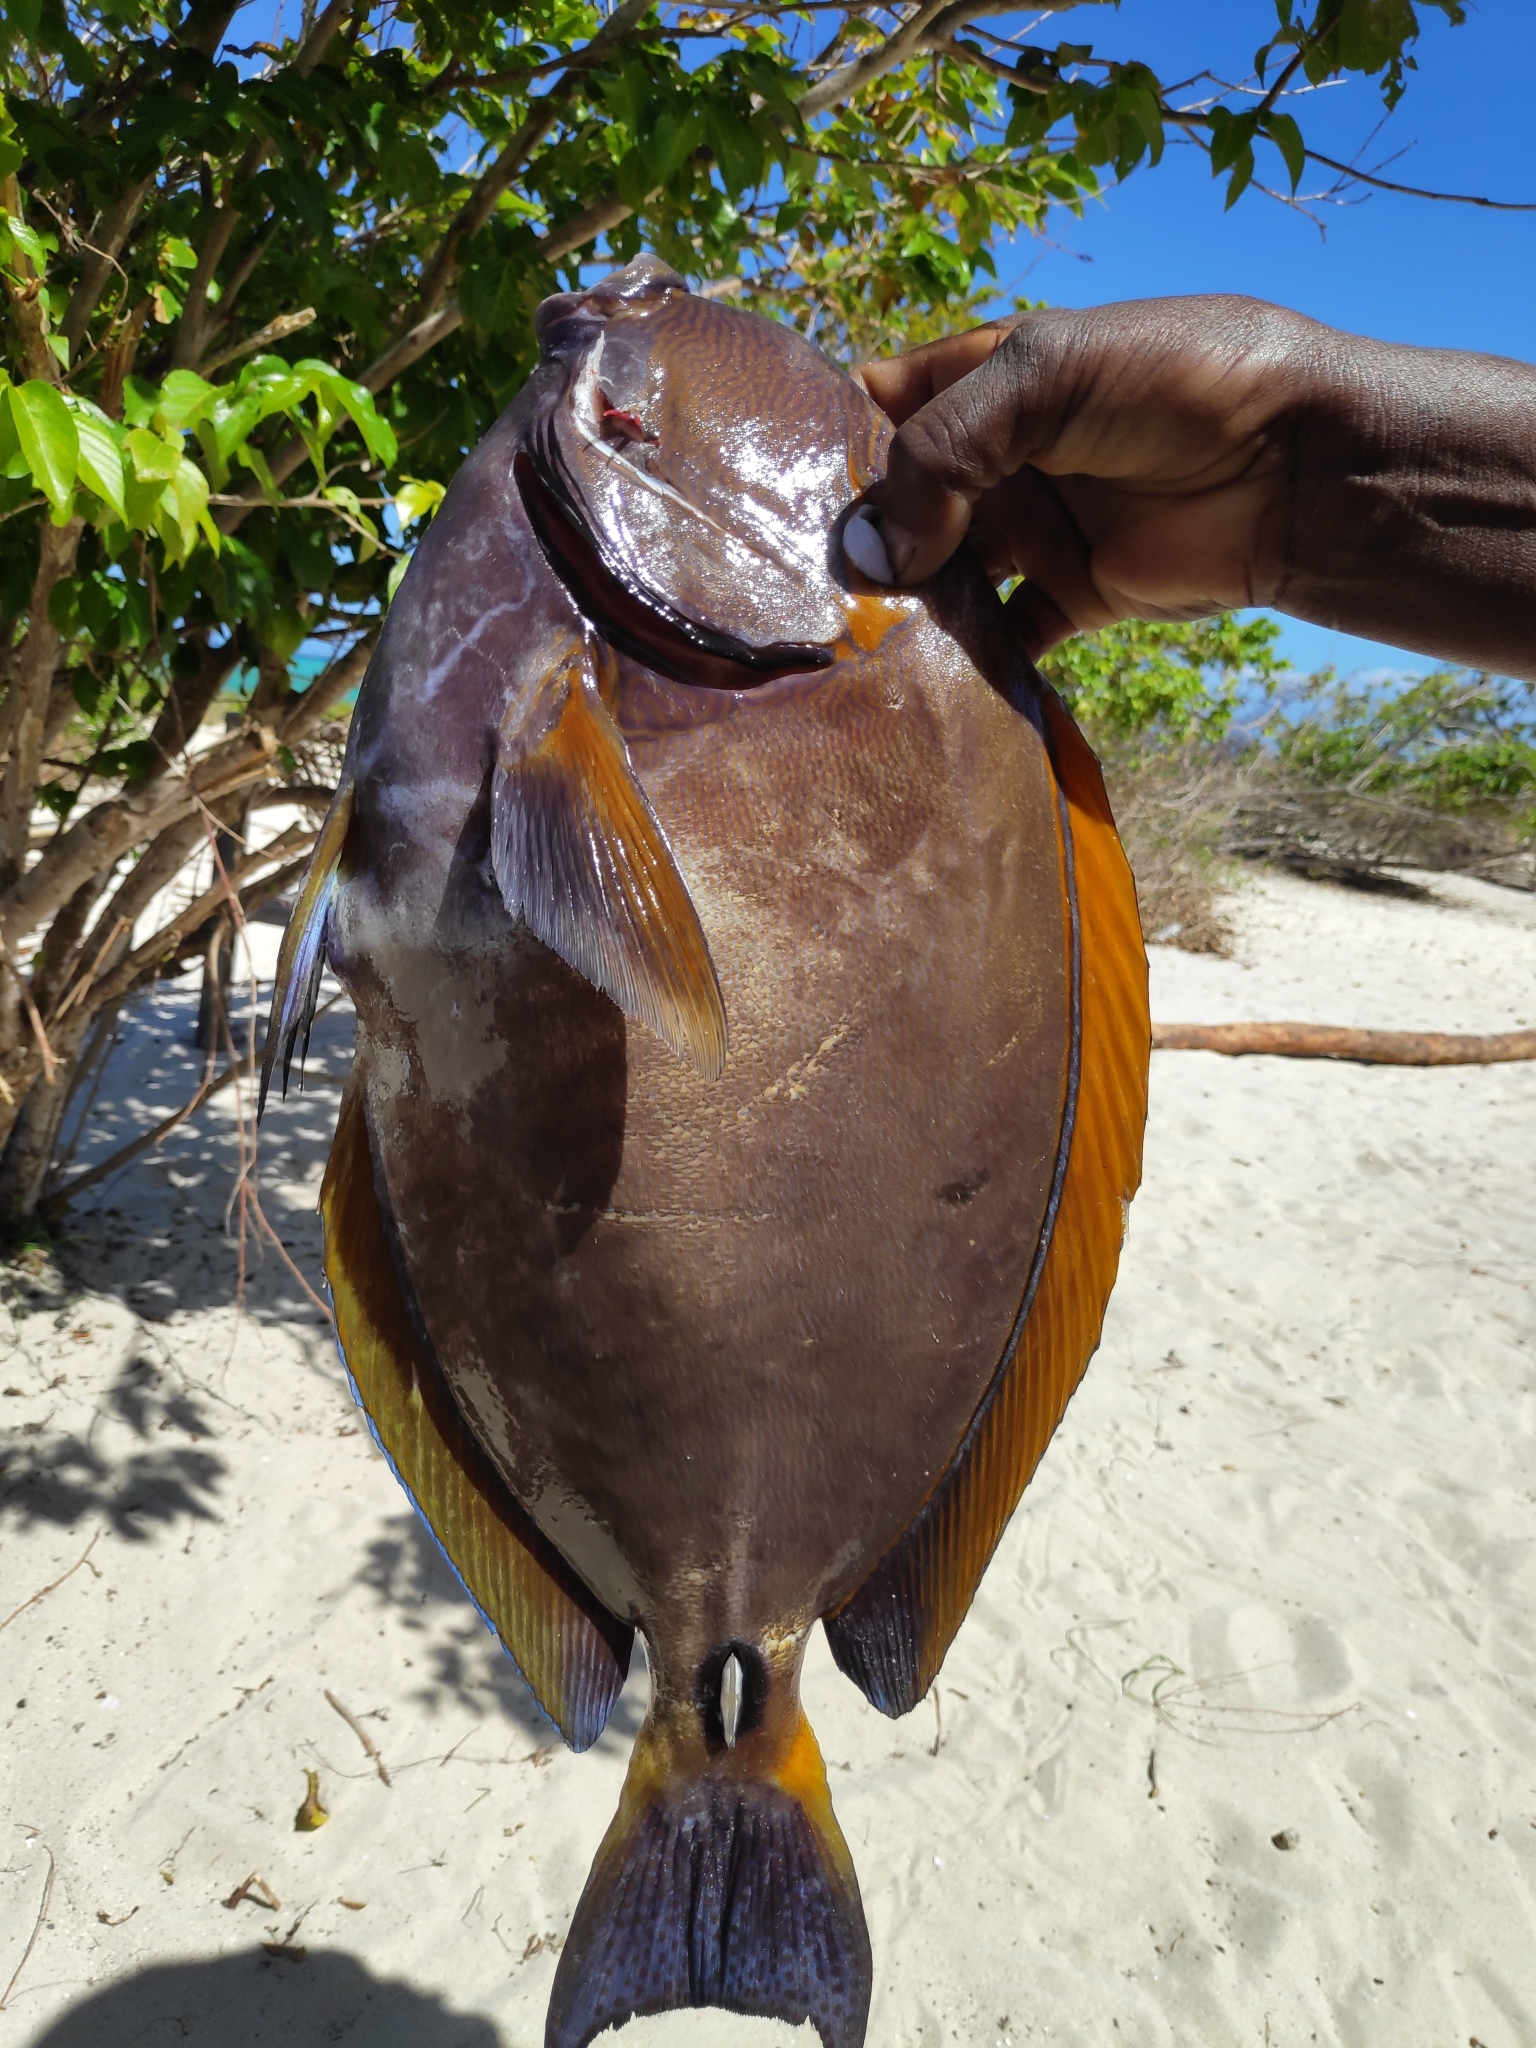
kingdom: Animalia
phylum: Chordata
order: Perciformes
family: Acanthuridae
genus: Acanthurus
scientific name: Acanthurus dussumieri
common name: Dussumier's surgeonfish
